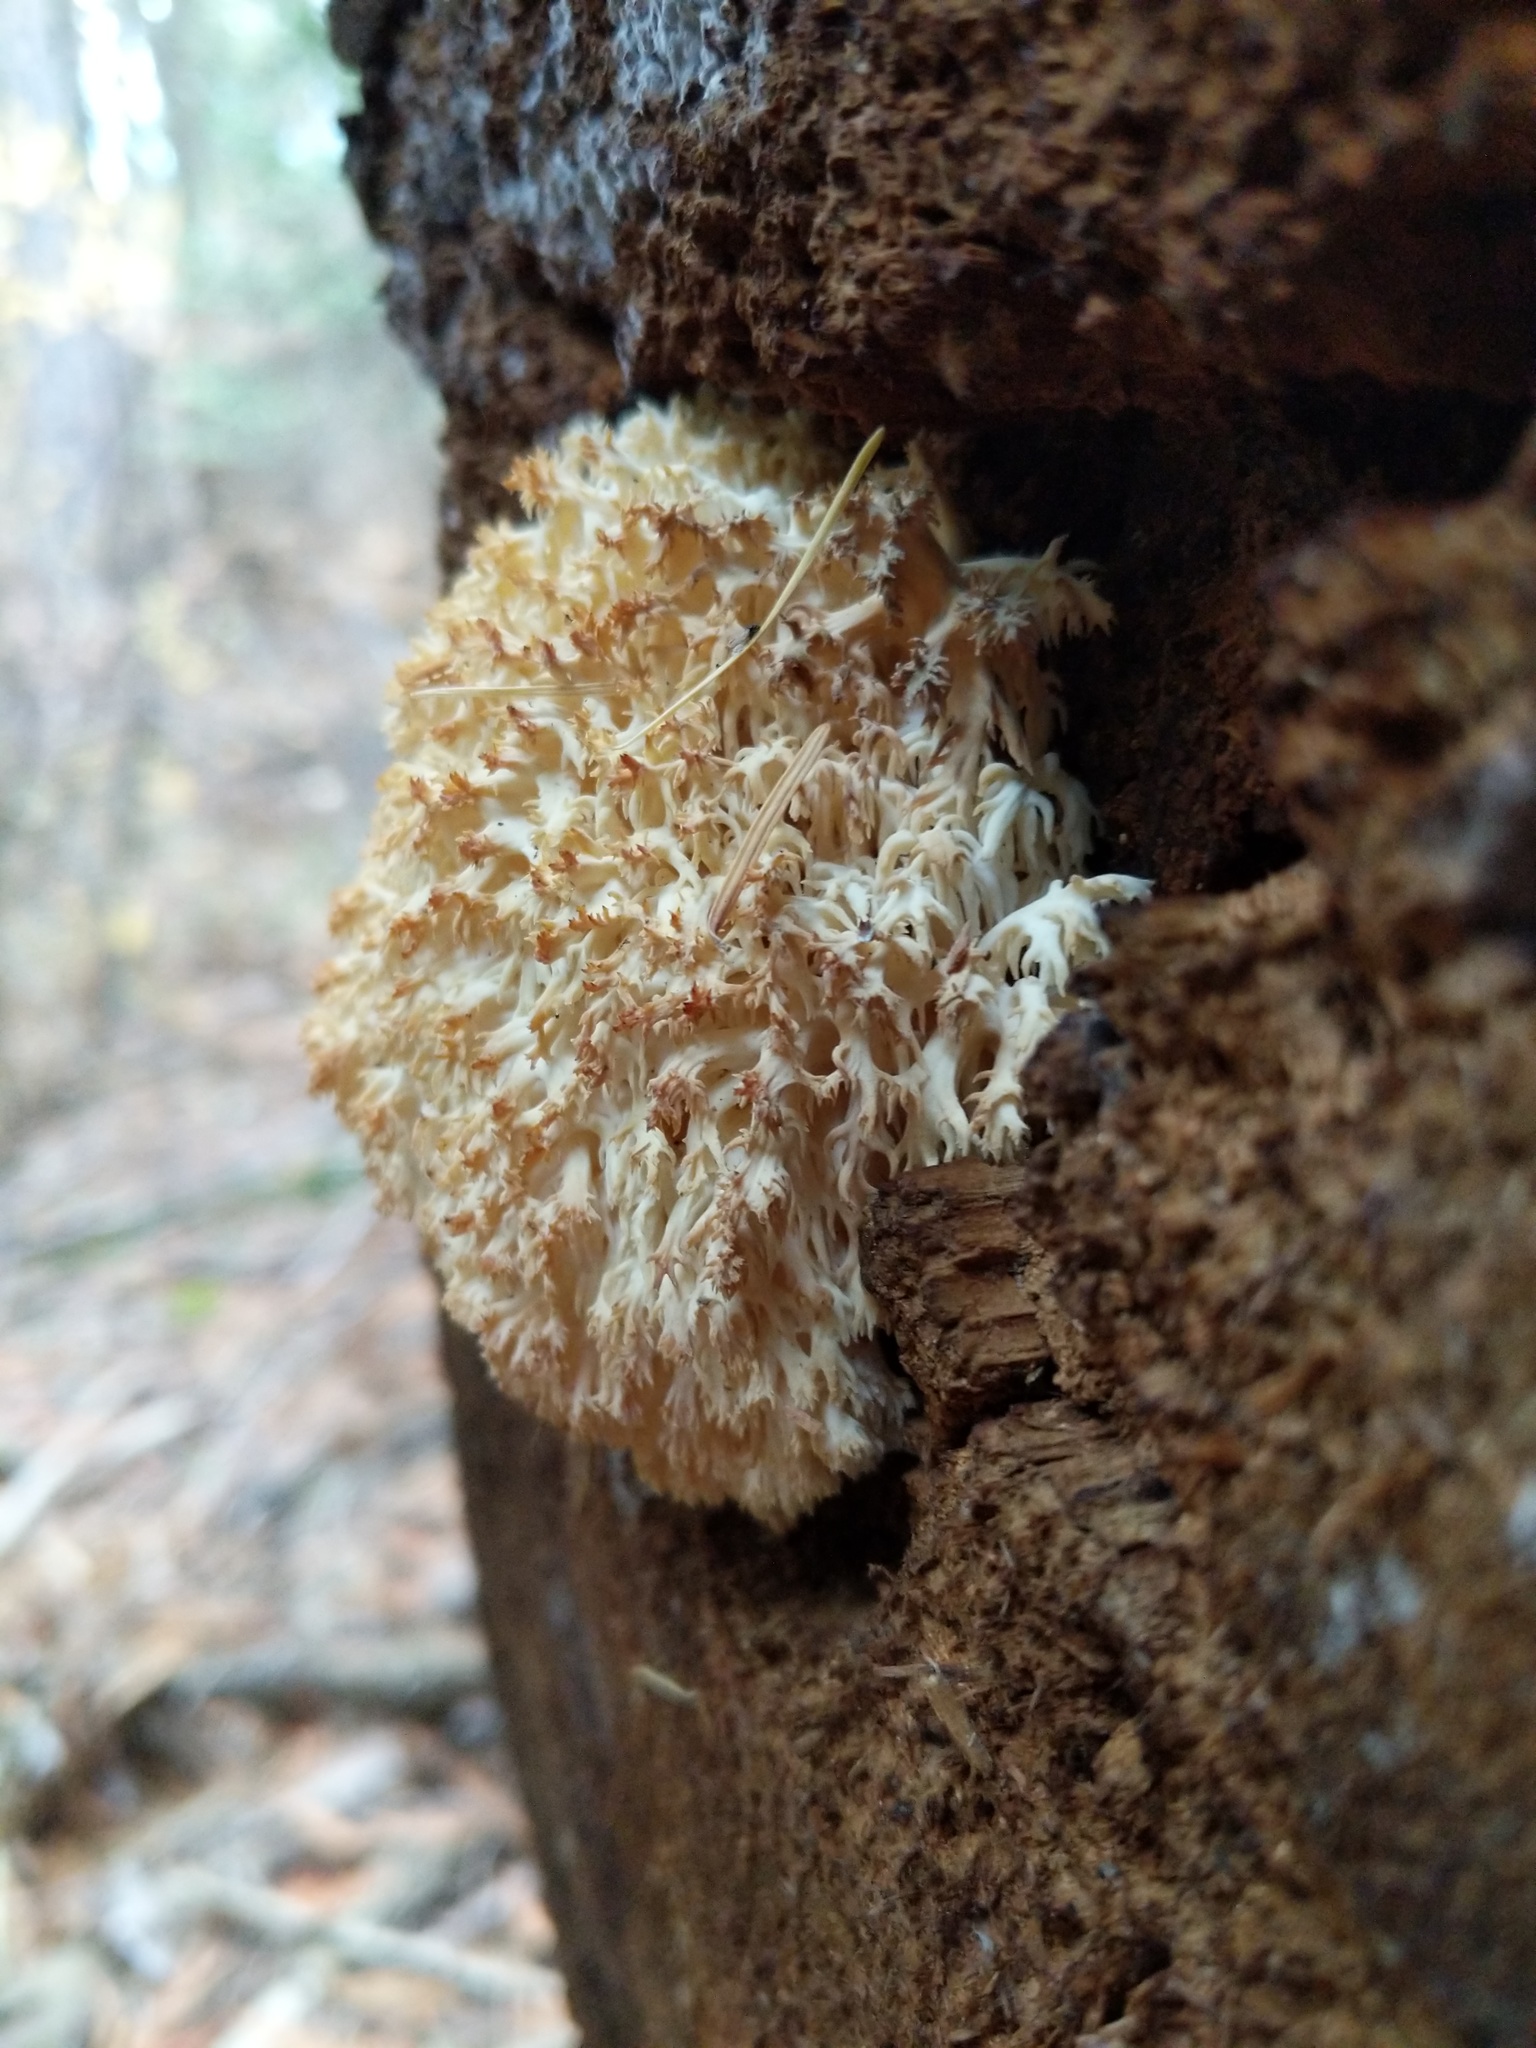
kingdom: Fungi
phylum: Basidiomycota
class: Agaricomycetes
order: Russulales
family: Hericiaceae
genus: Hericium
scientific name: Hericium abietis
